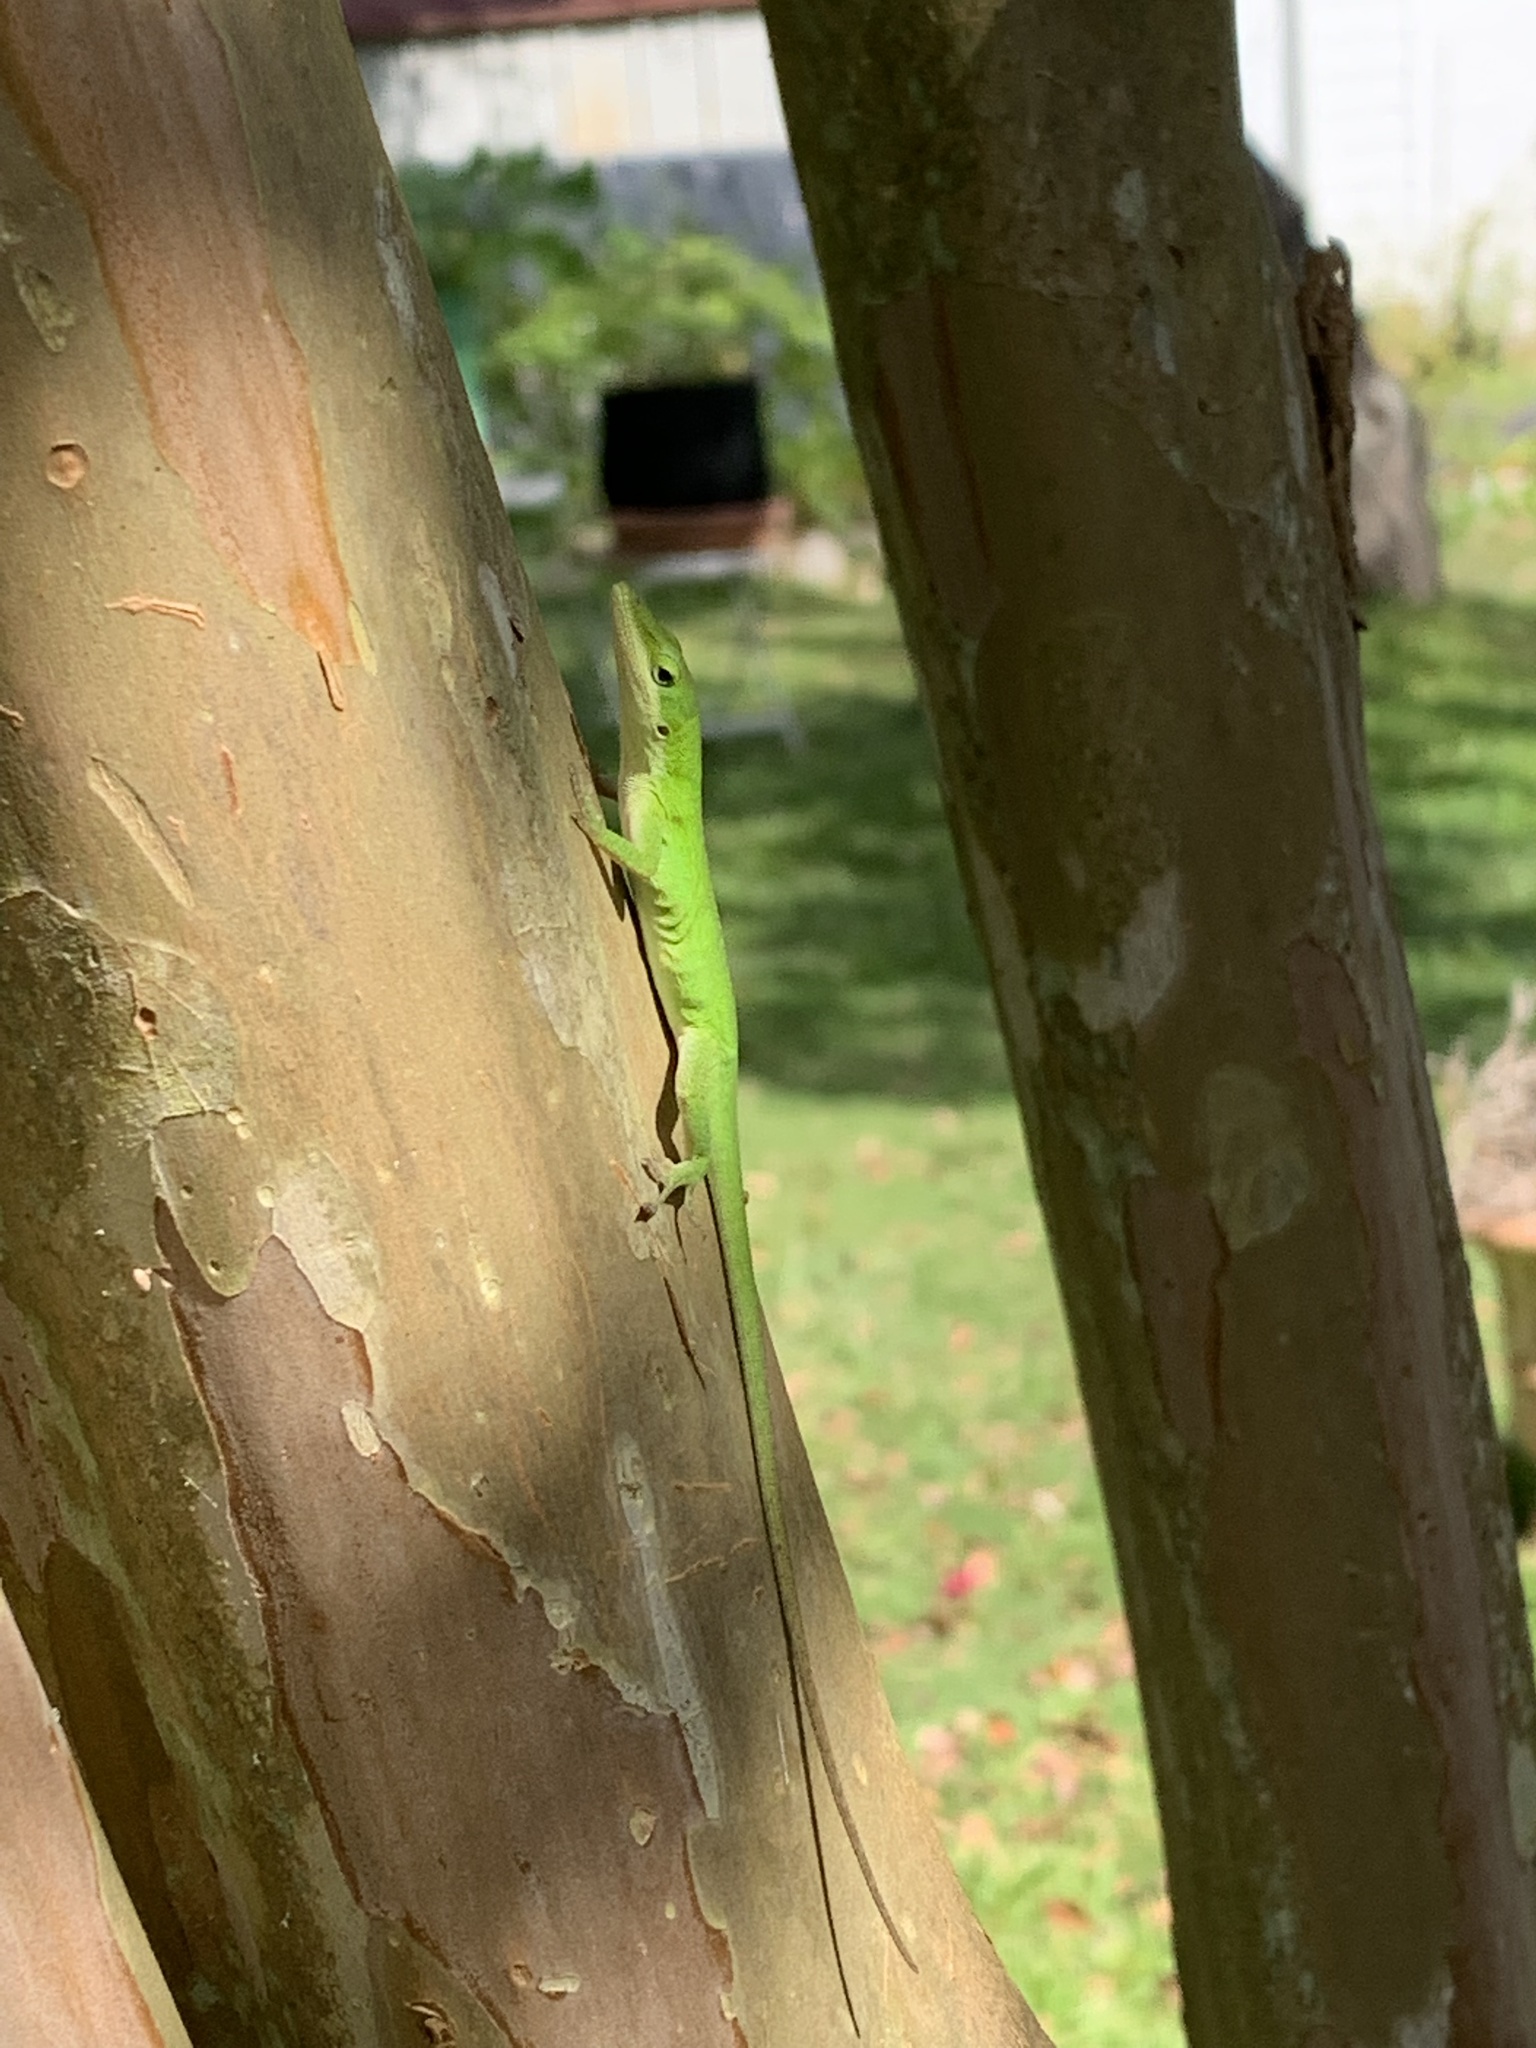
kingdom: Animalia
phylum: Chordata
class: Squamata
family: Dactyloidae
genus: Anolis
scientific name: Anolis carolinensis
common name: Green anole
